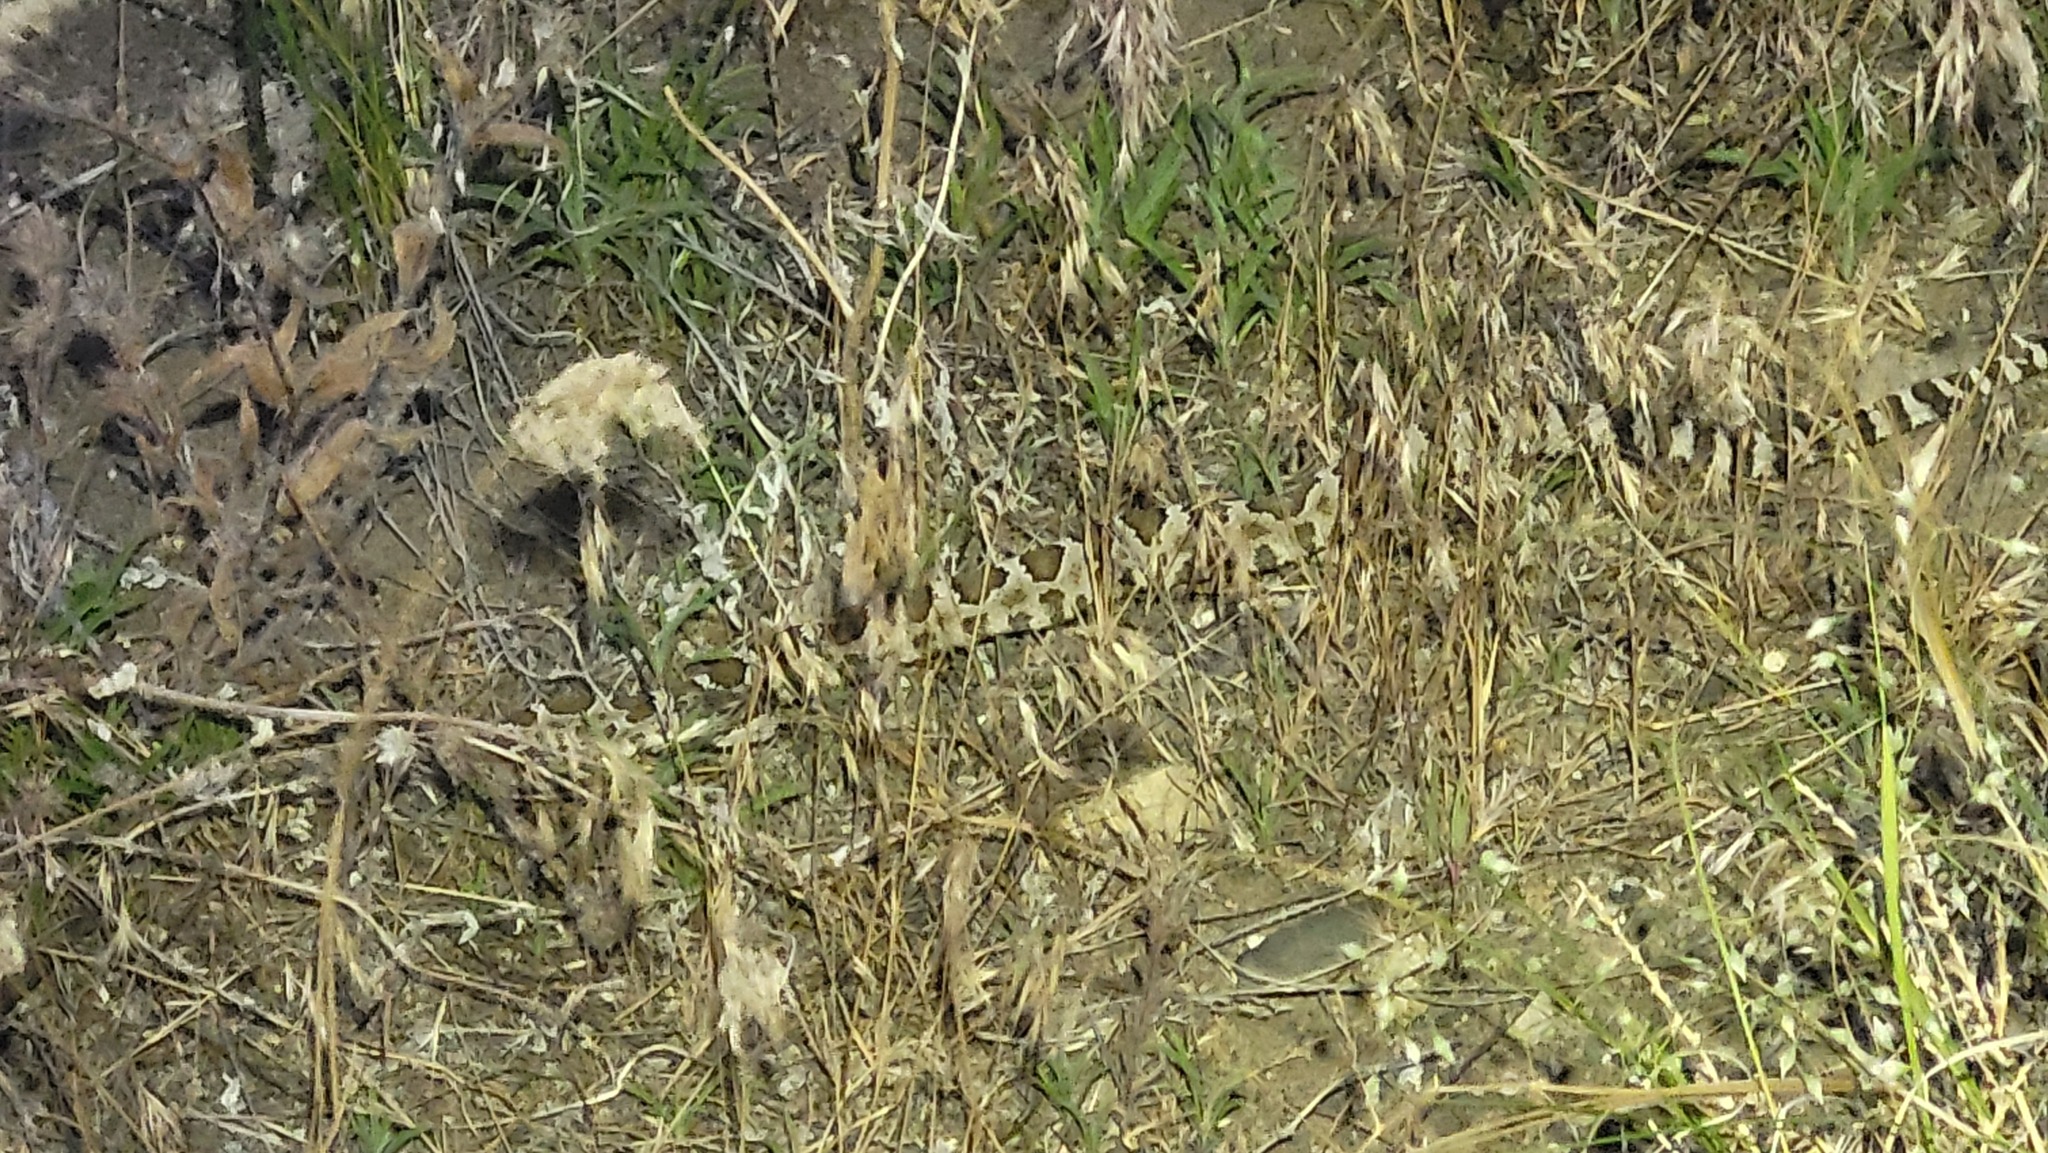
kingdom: Animalia
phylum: Chordata
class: Squamata
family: Viperidae
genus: Crotalus
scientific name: Crotalus oreganus
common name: Abyssus
